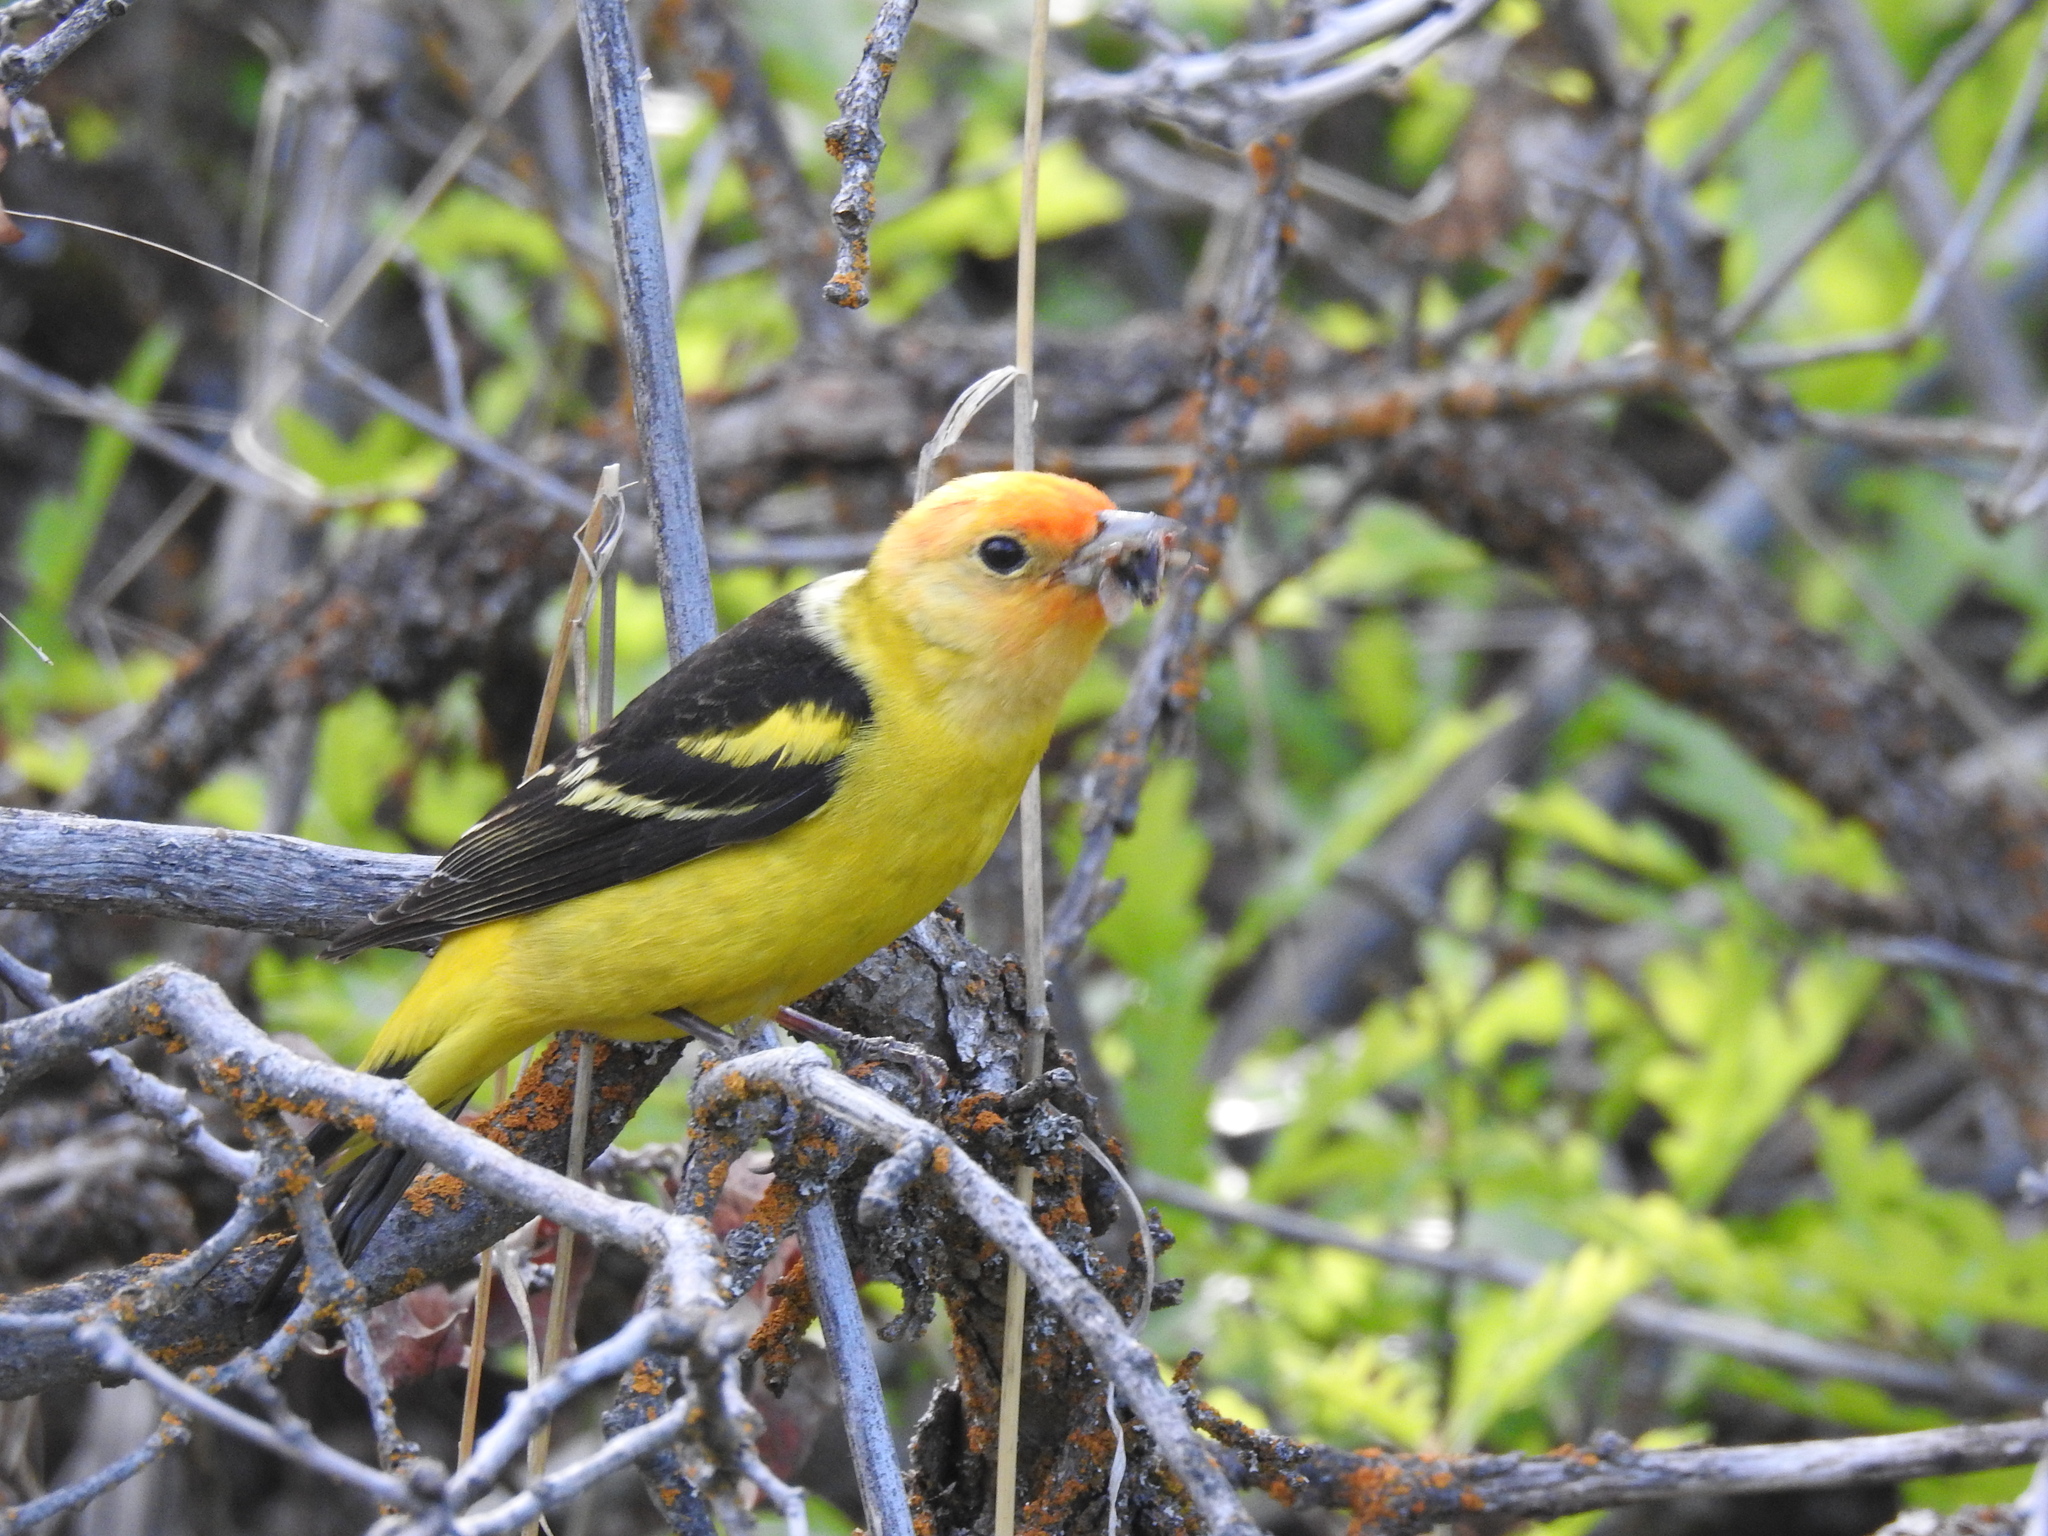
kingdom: Animalia
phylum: Chordata
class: Aves
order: Passeriformes
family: Cardinalidae
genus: Piranga
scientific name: Piranga ludoviciana
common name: Western tanager
